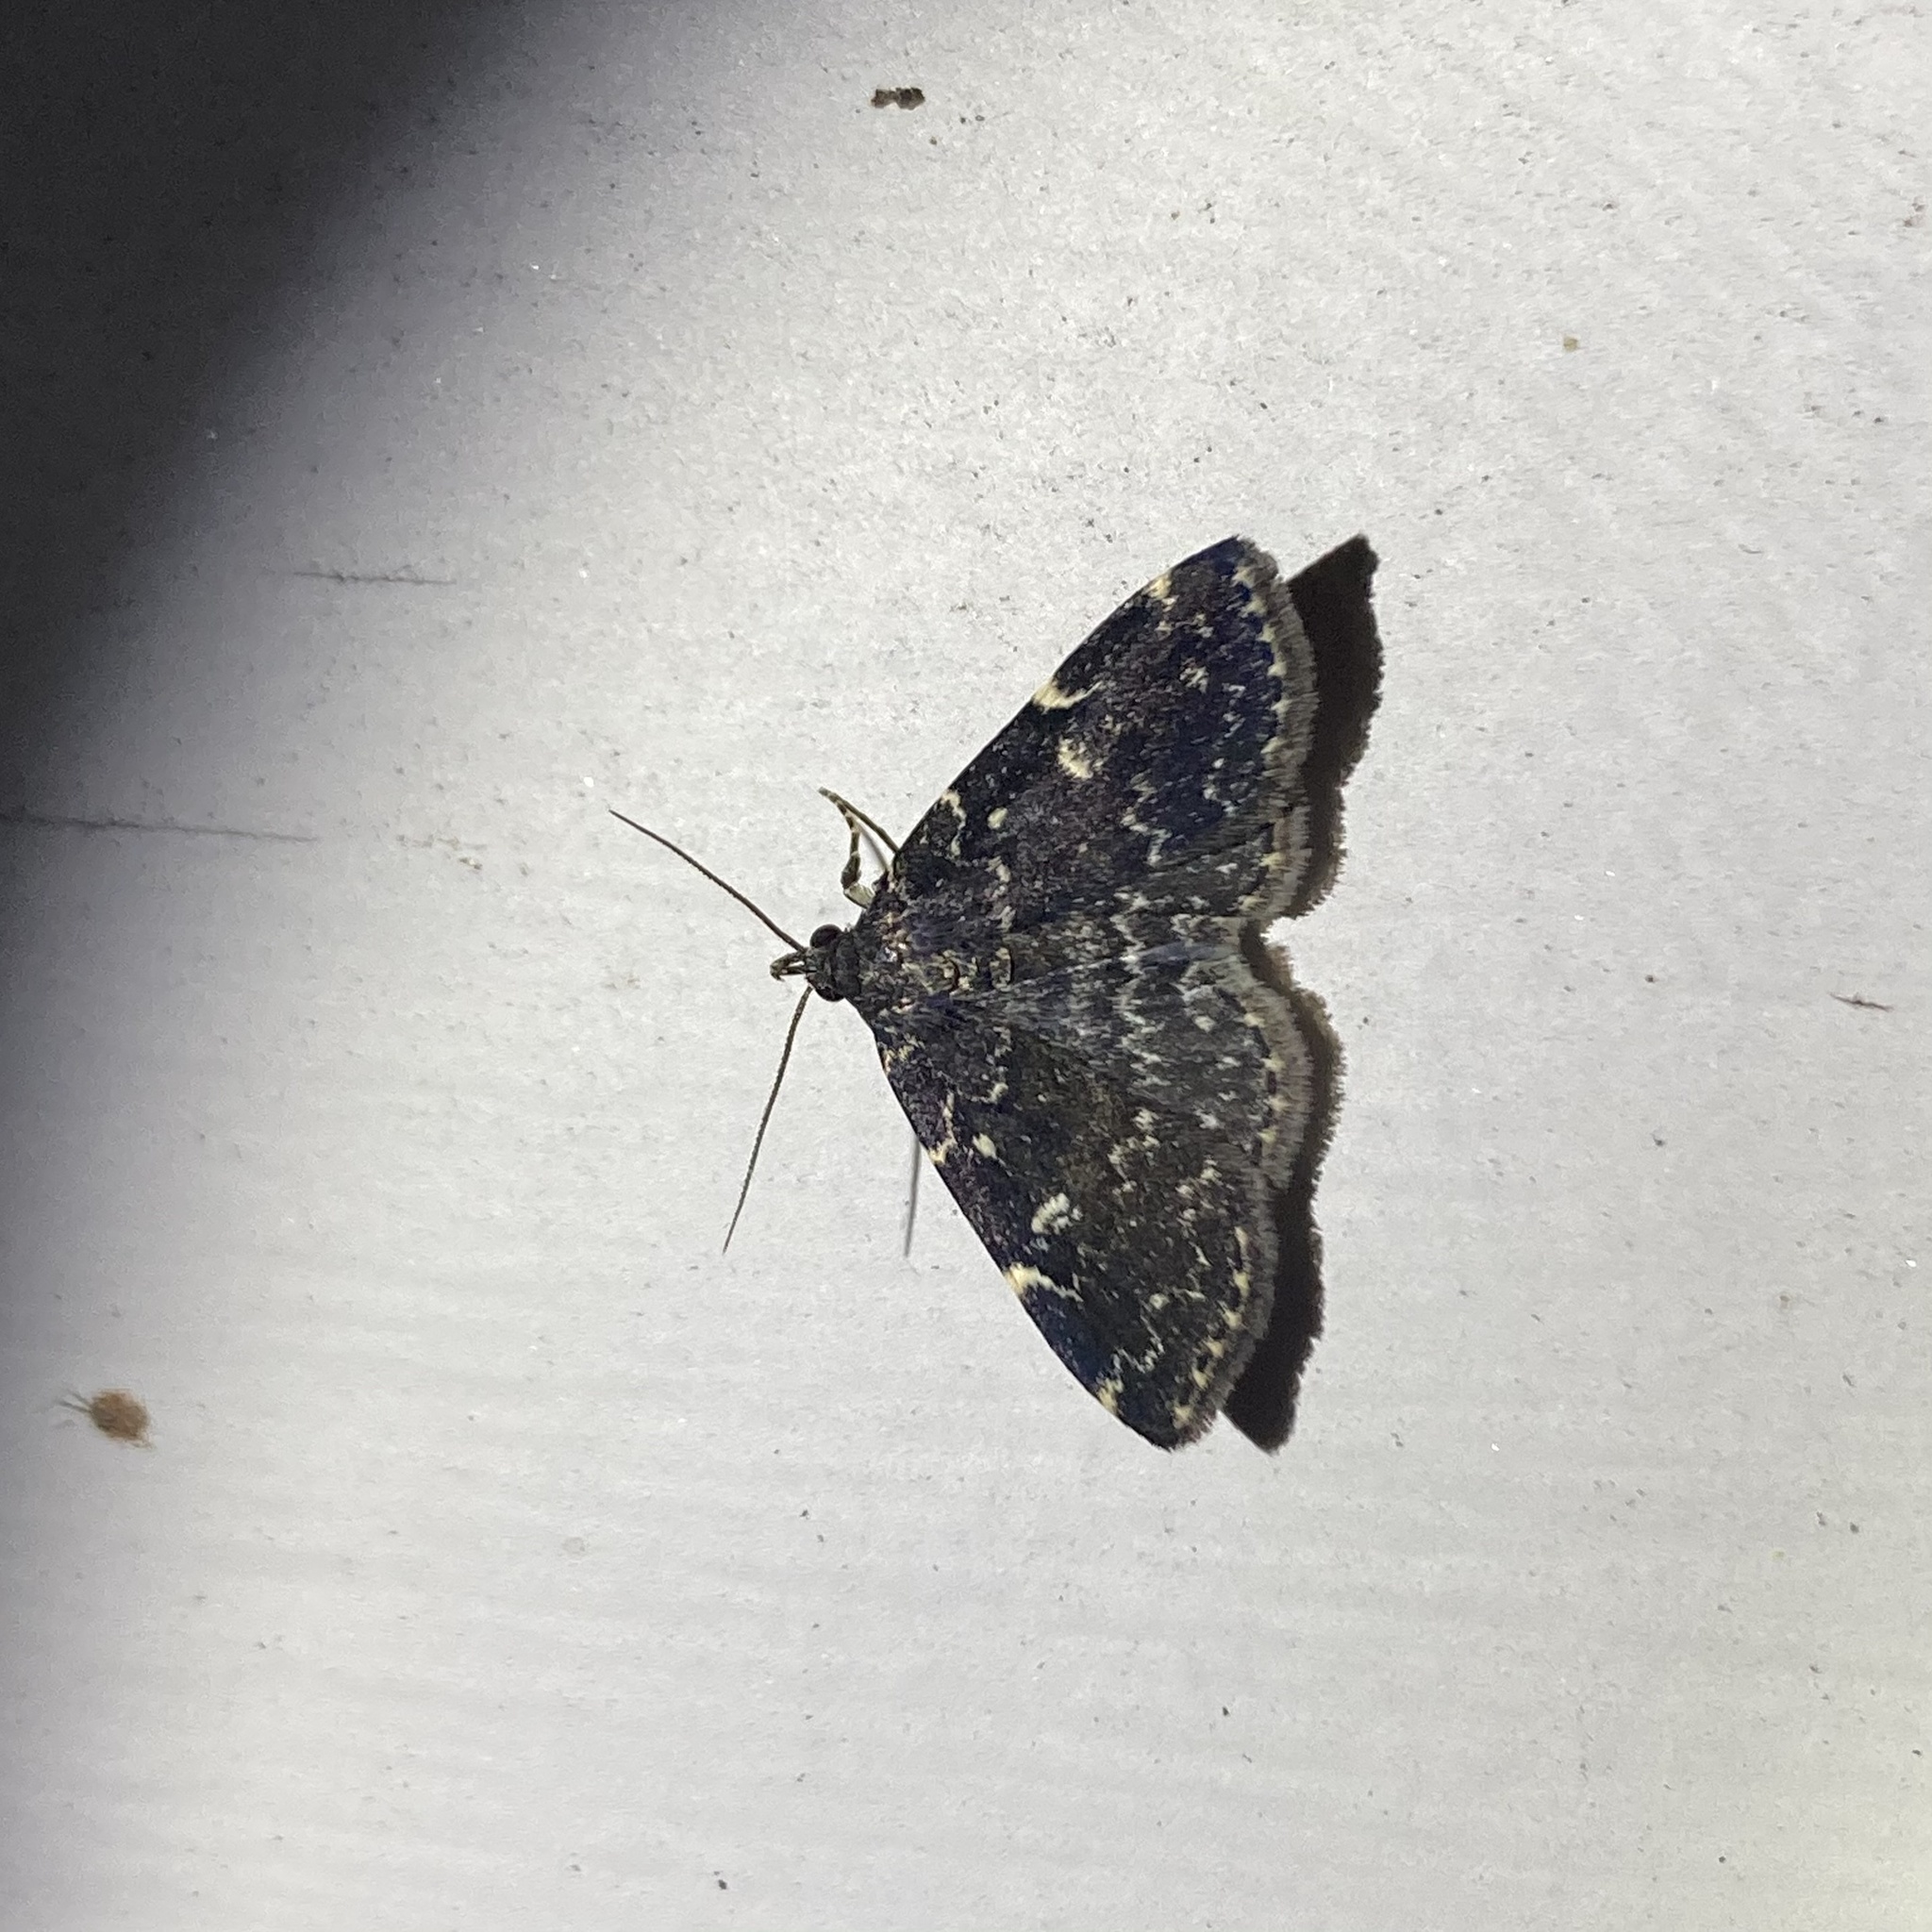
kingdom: Animalia
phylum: Arthropoda
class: Insecta
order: Lepidoptera
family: Erebidae
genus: Idia
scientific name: Idia scobialis
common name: Smoky idia moth
